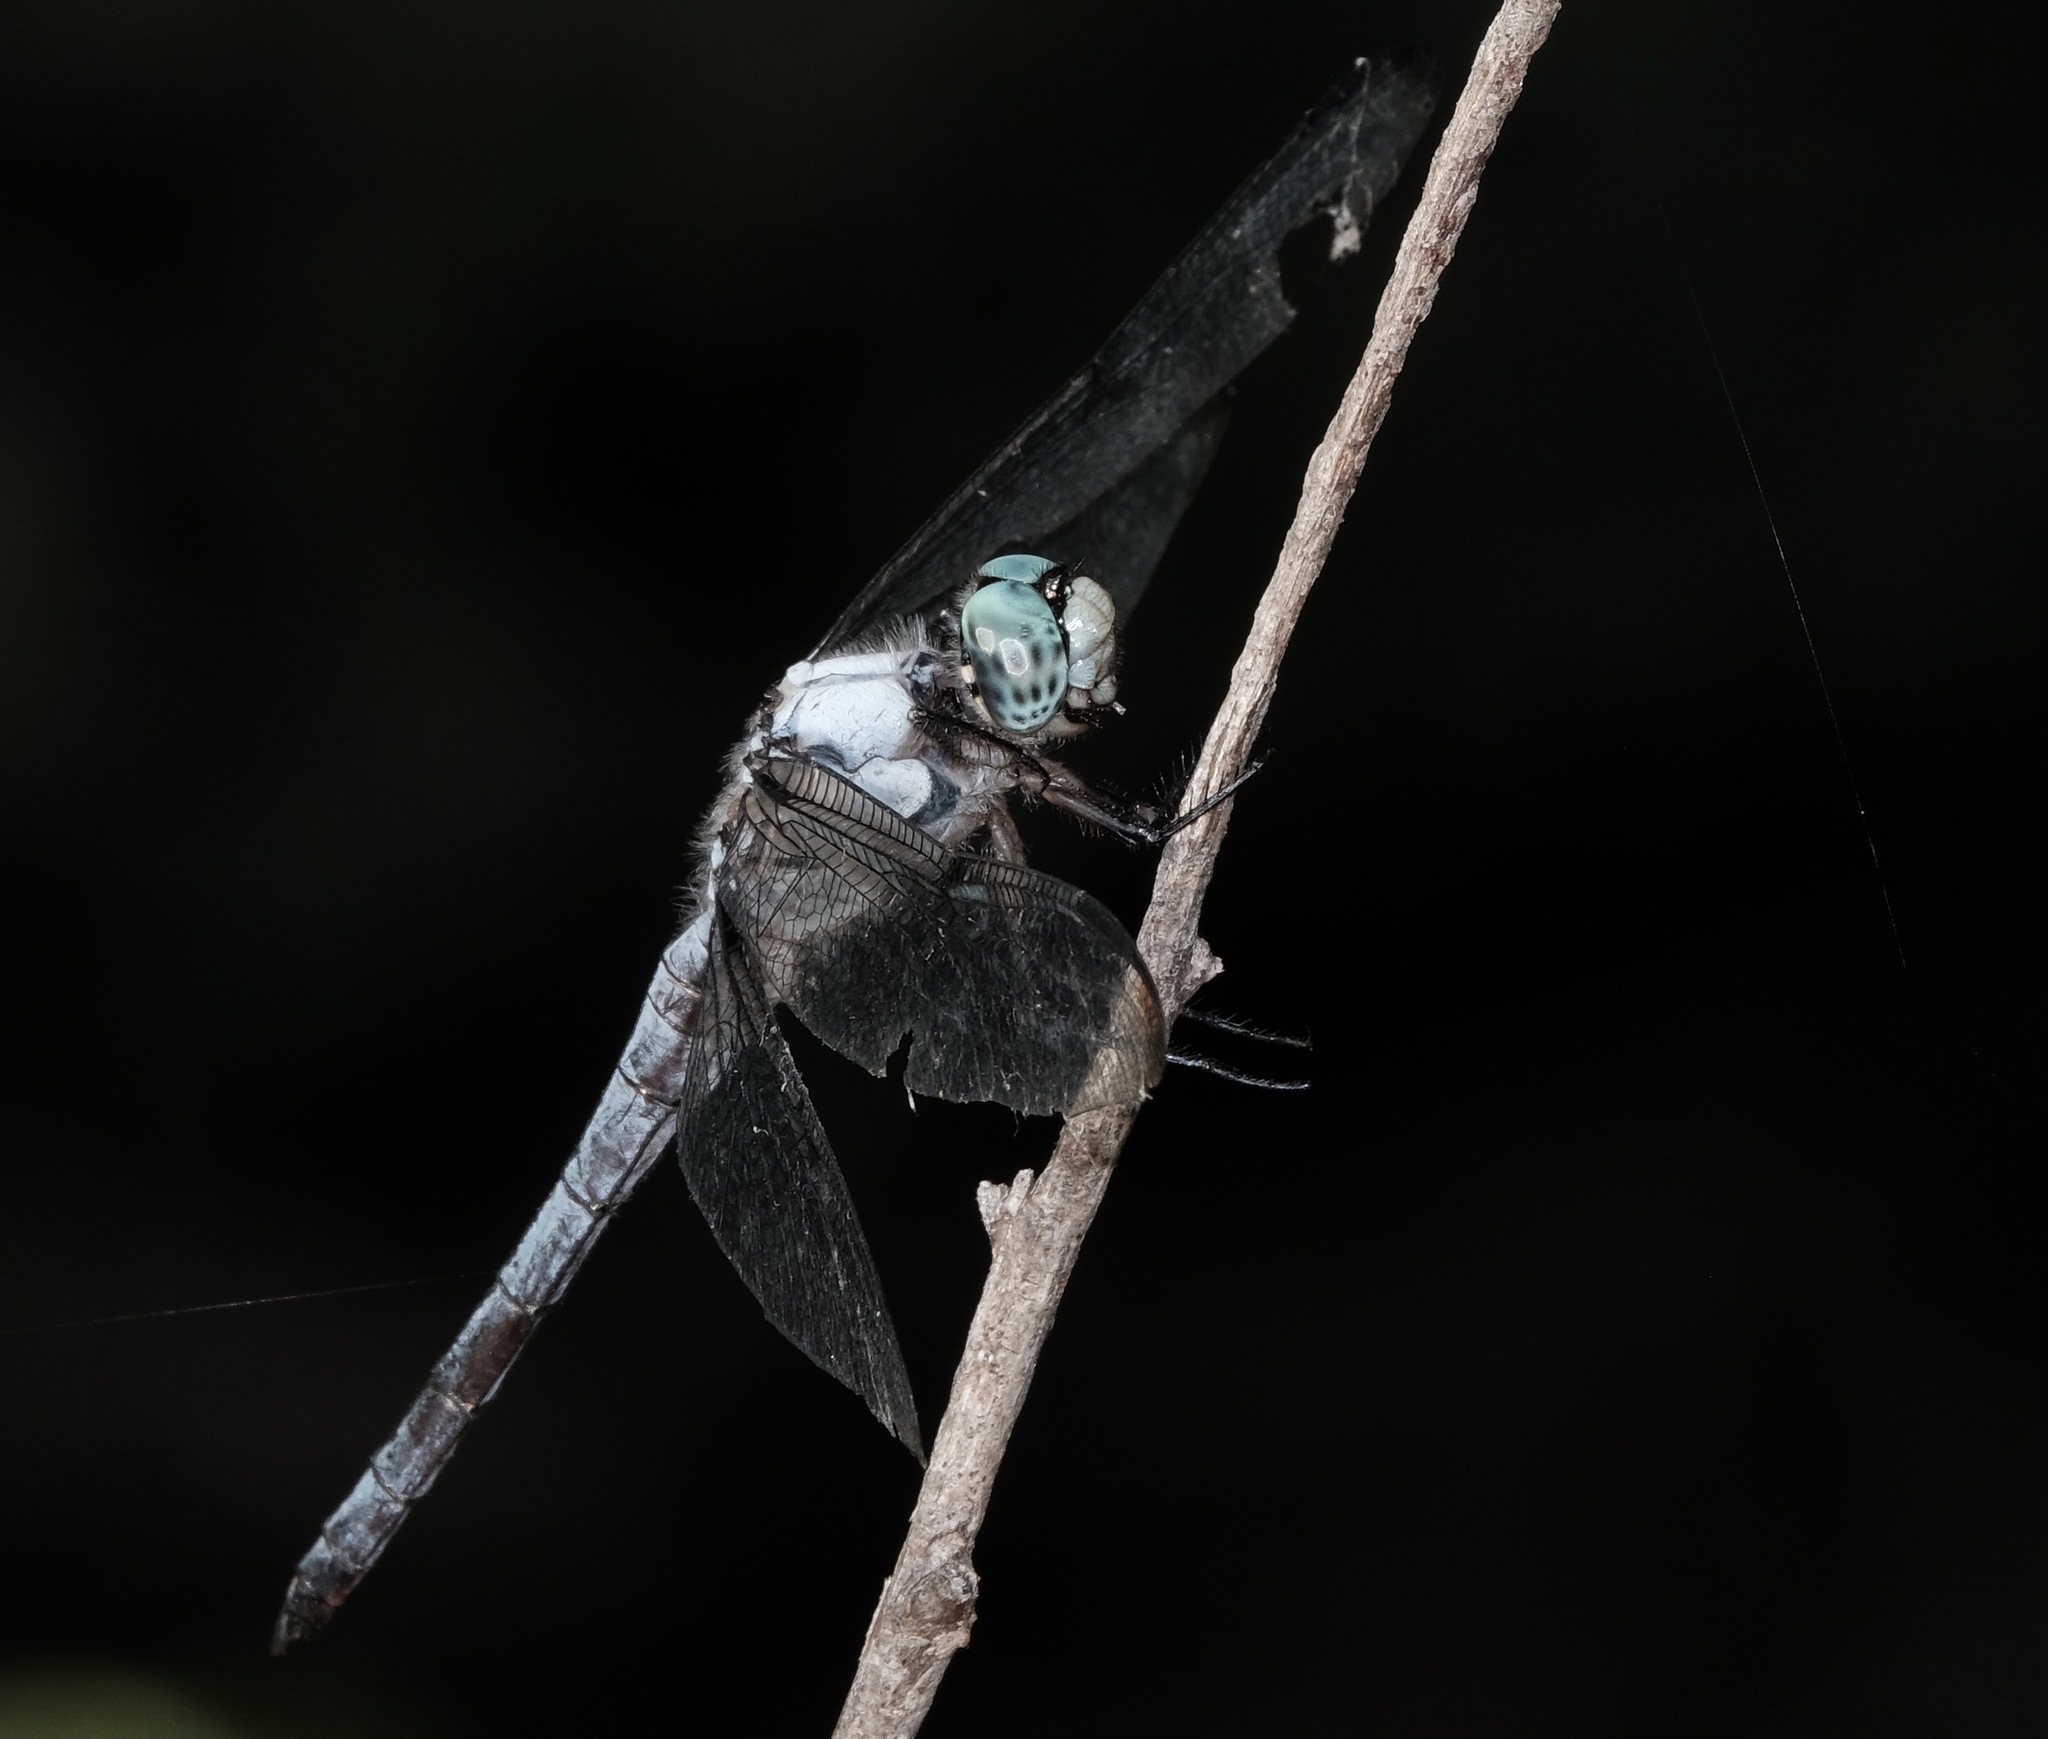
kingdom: Animalia
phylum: Arthropoda
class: Insecta
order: Odonata
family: Libellulidae
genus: Libellula
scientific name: Libellula vibrans
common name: Great blue skimmer
